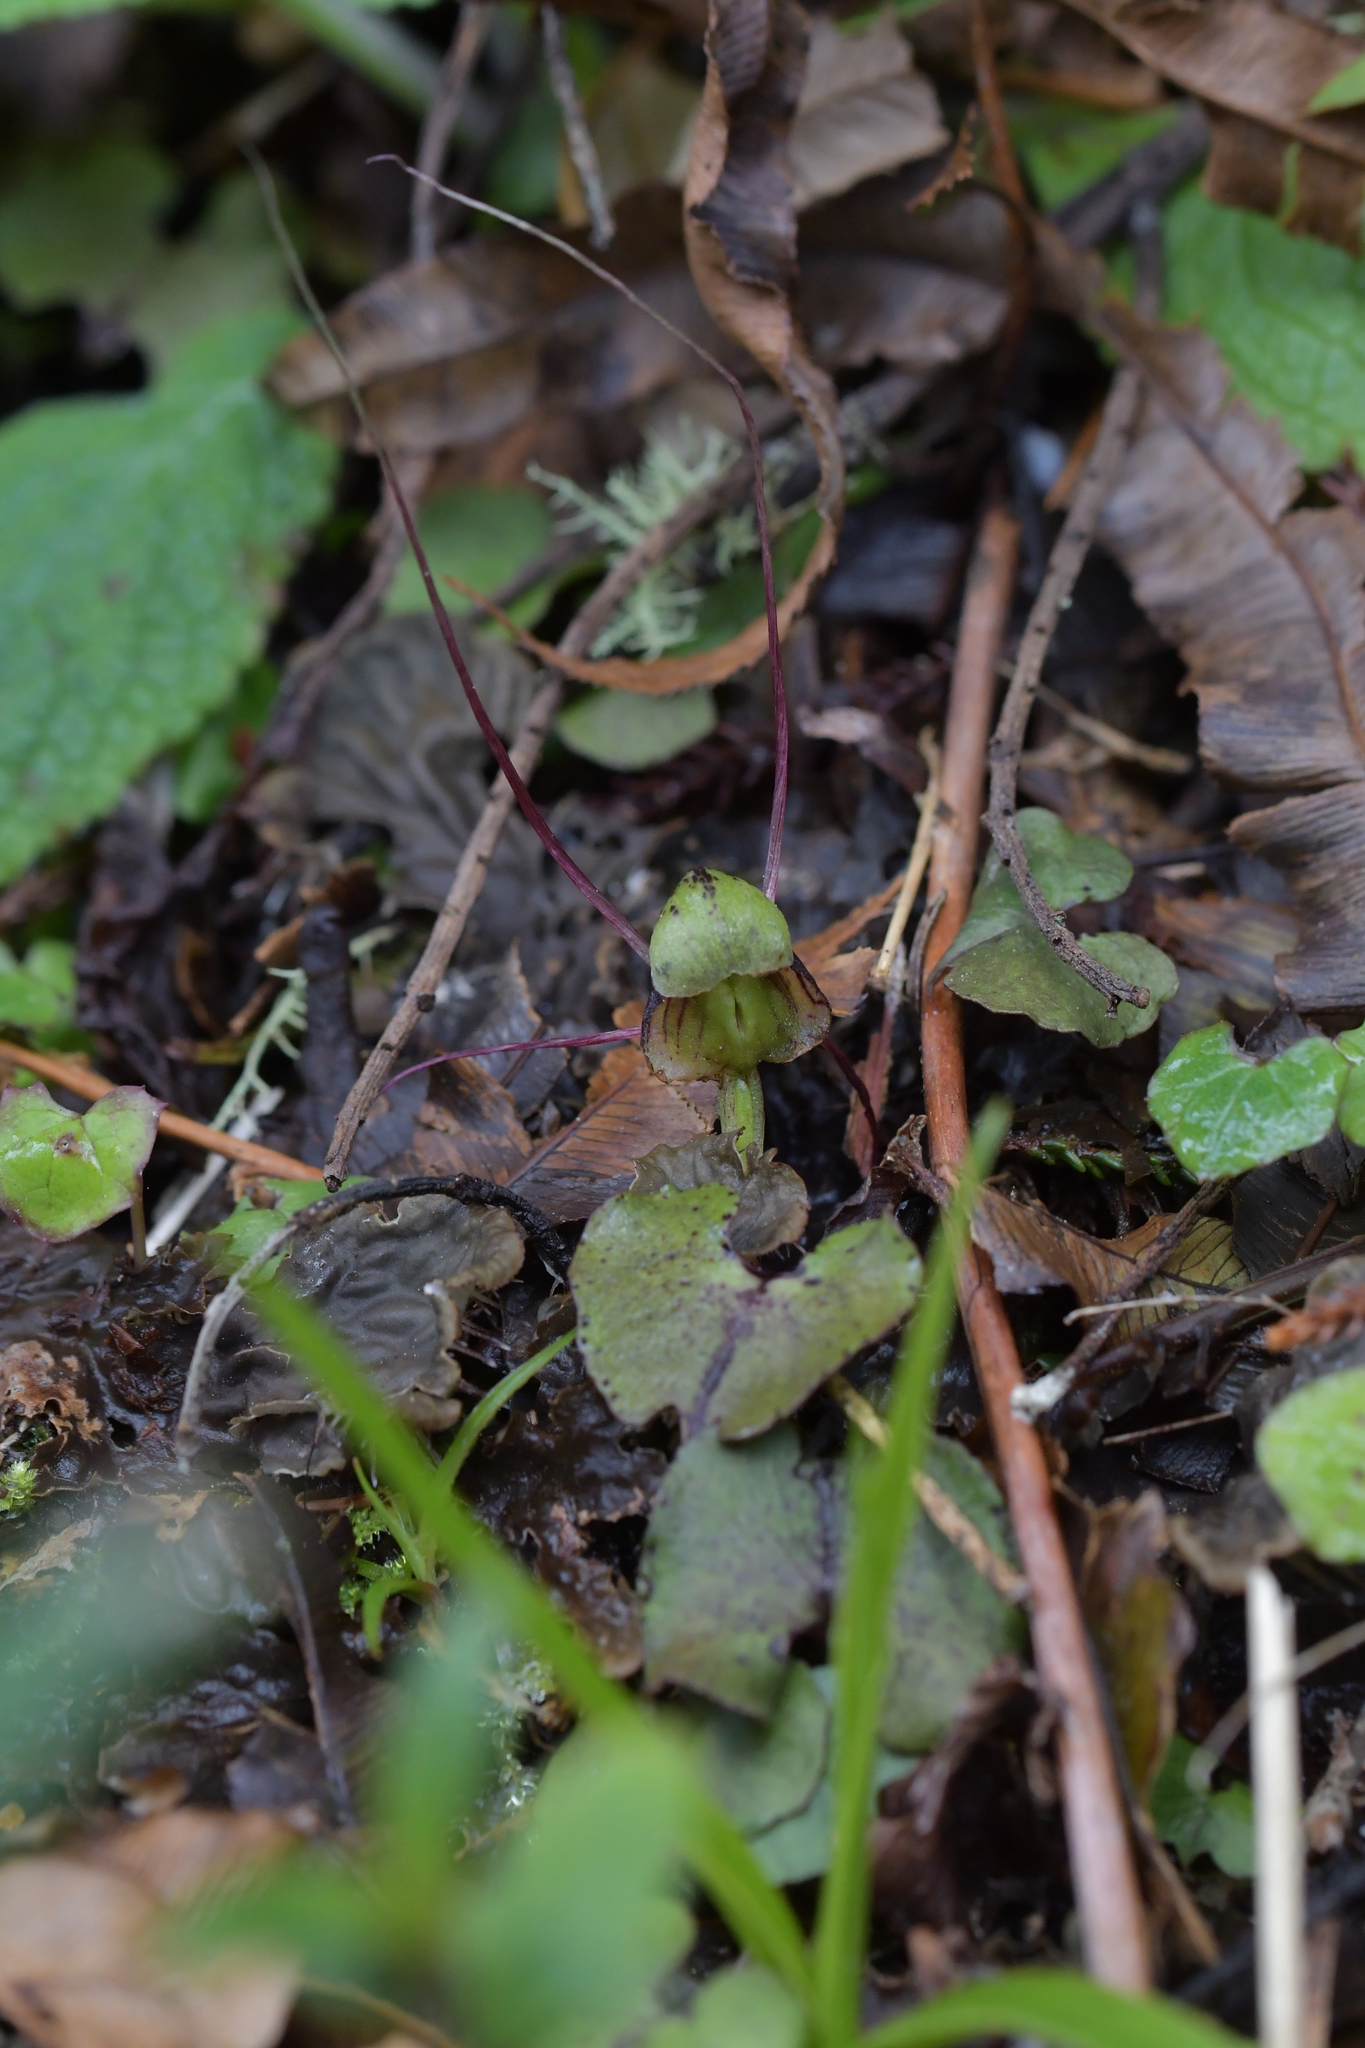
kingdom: Plantae
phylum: Tracheophyta
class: Liliopsida
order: Asparagales
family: Orchidaceae
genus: Corybas
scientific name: Corybas trilobus
